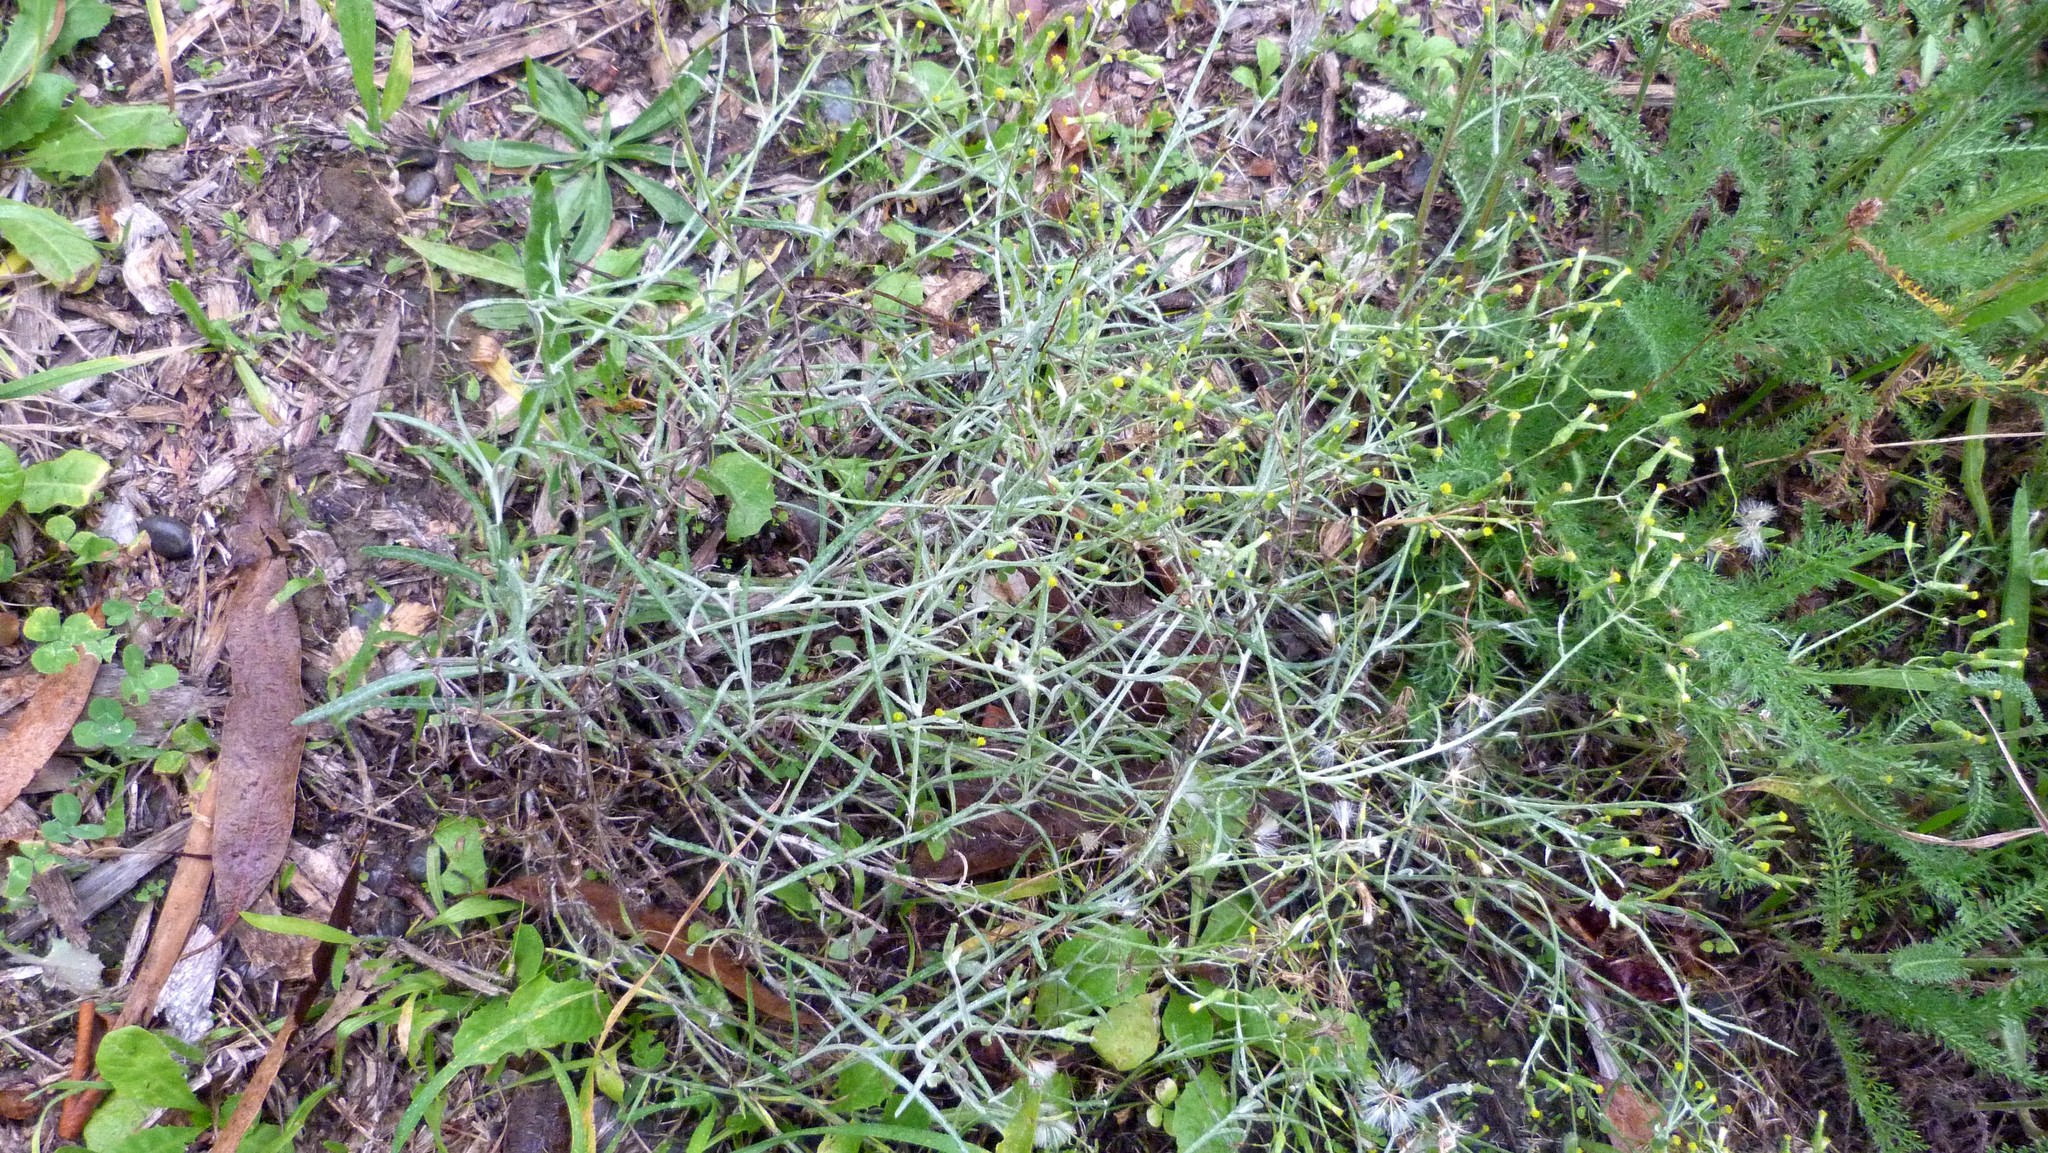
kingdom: Plantae
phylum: Tracheophyta
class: Magnoliopsida
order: Asterales
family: Asteraceae
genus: Senecio
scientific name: Senecio quadridentatus
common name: Cotton fireweed
